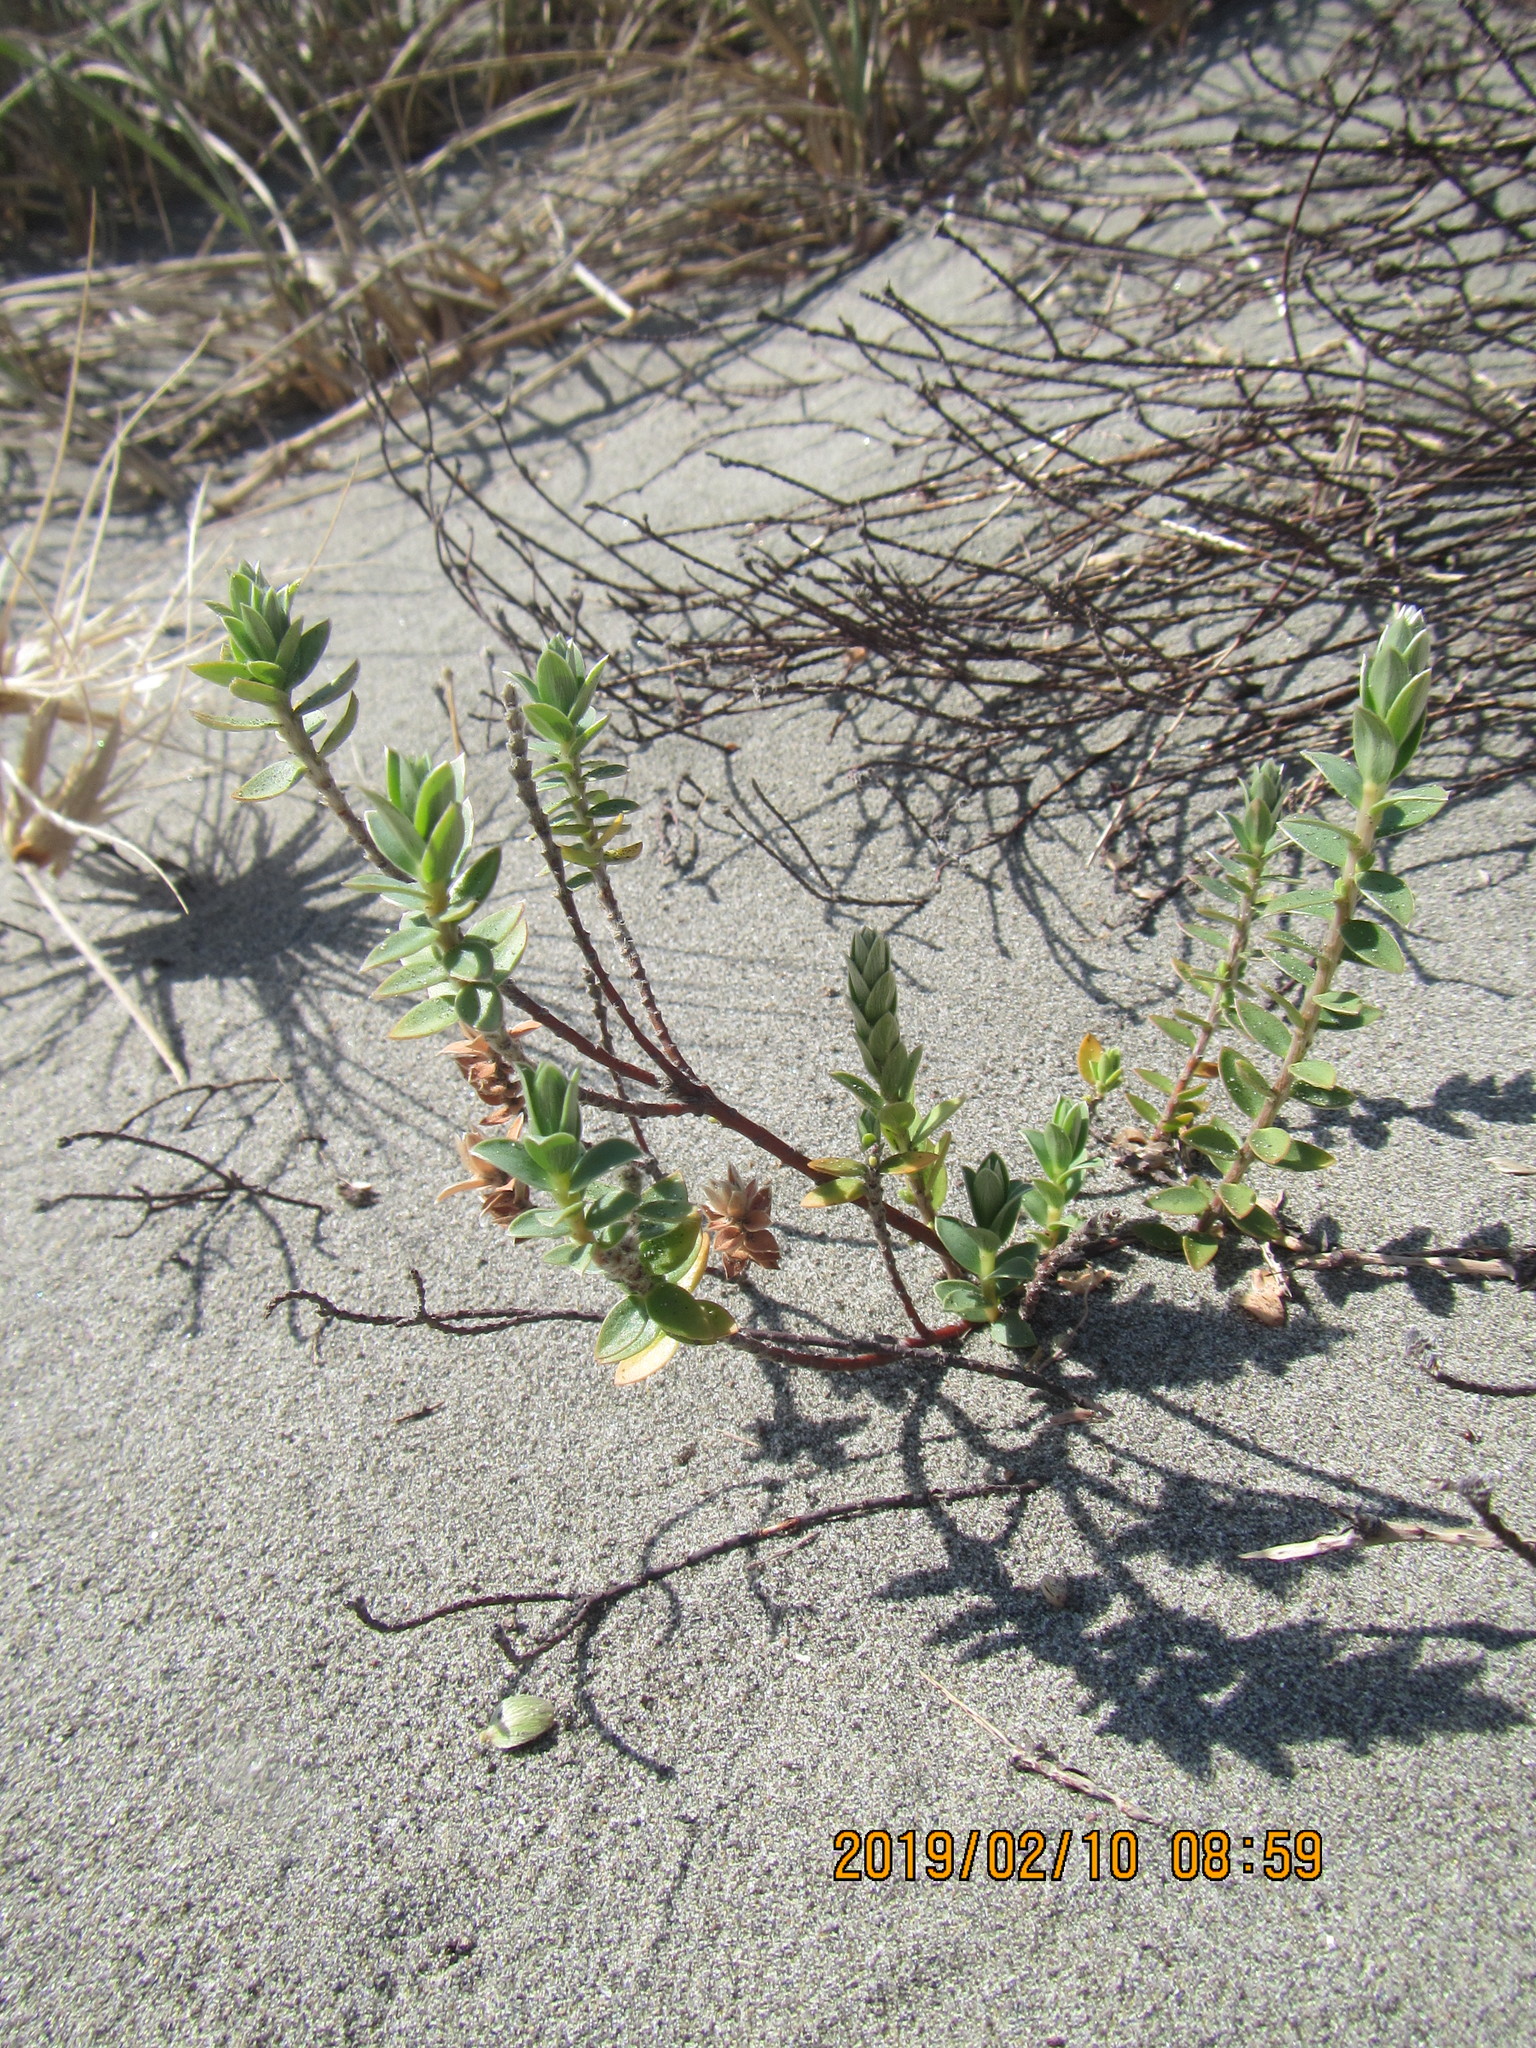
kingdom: Plantae
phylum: Tracheophyta
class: Magnoliopsida
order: Malvales
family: Thymelaeaceae
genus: Pimelea
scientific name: Pimelea villosa
